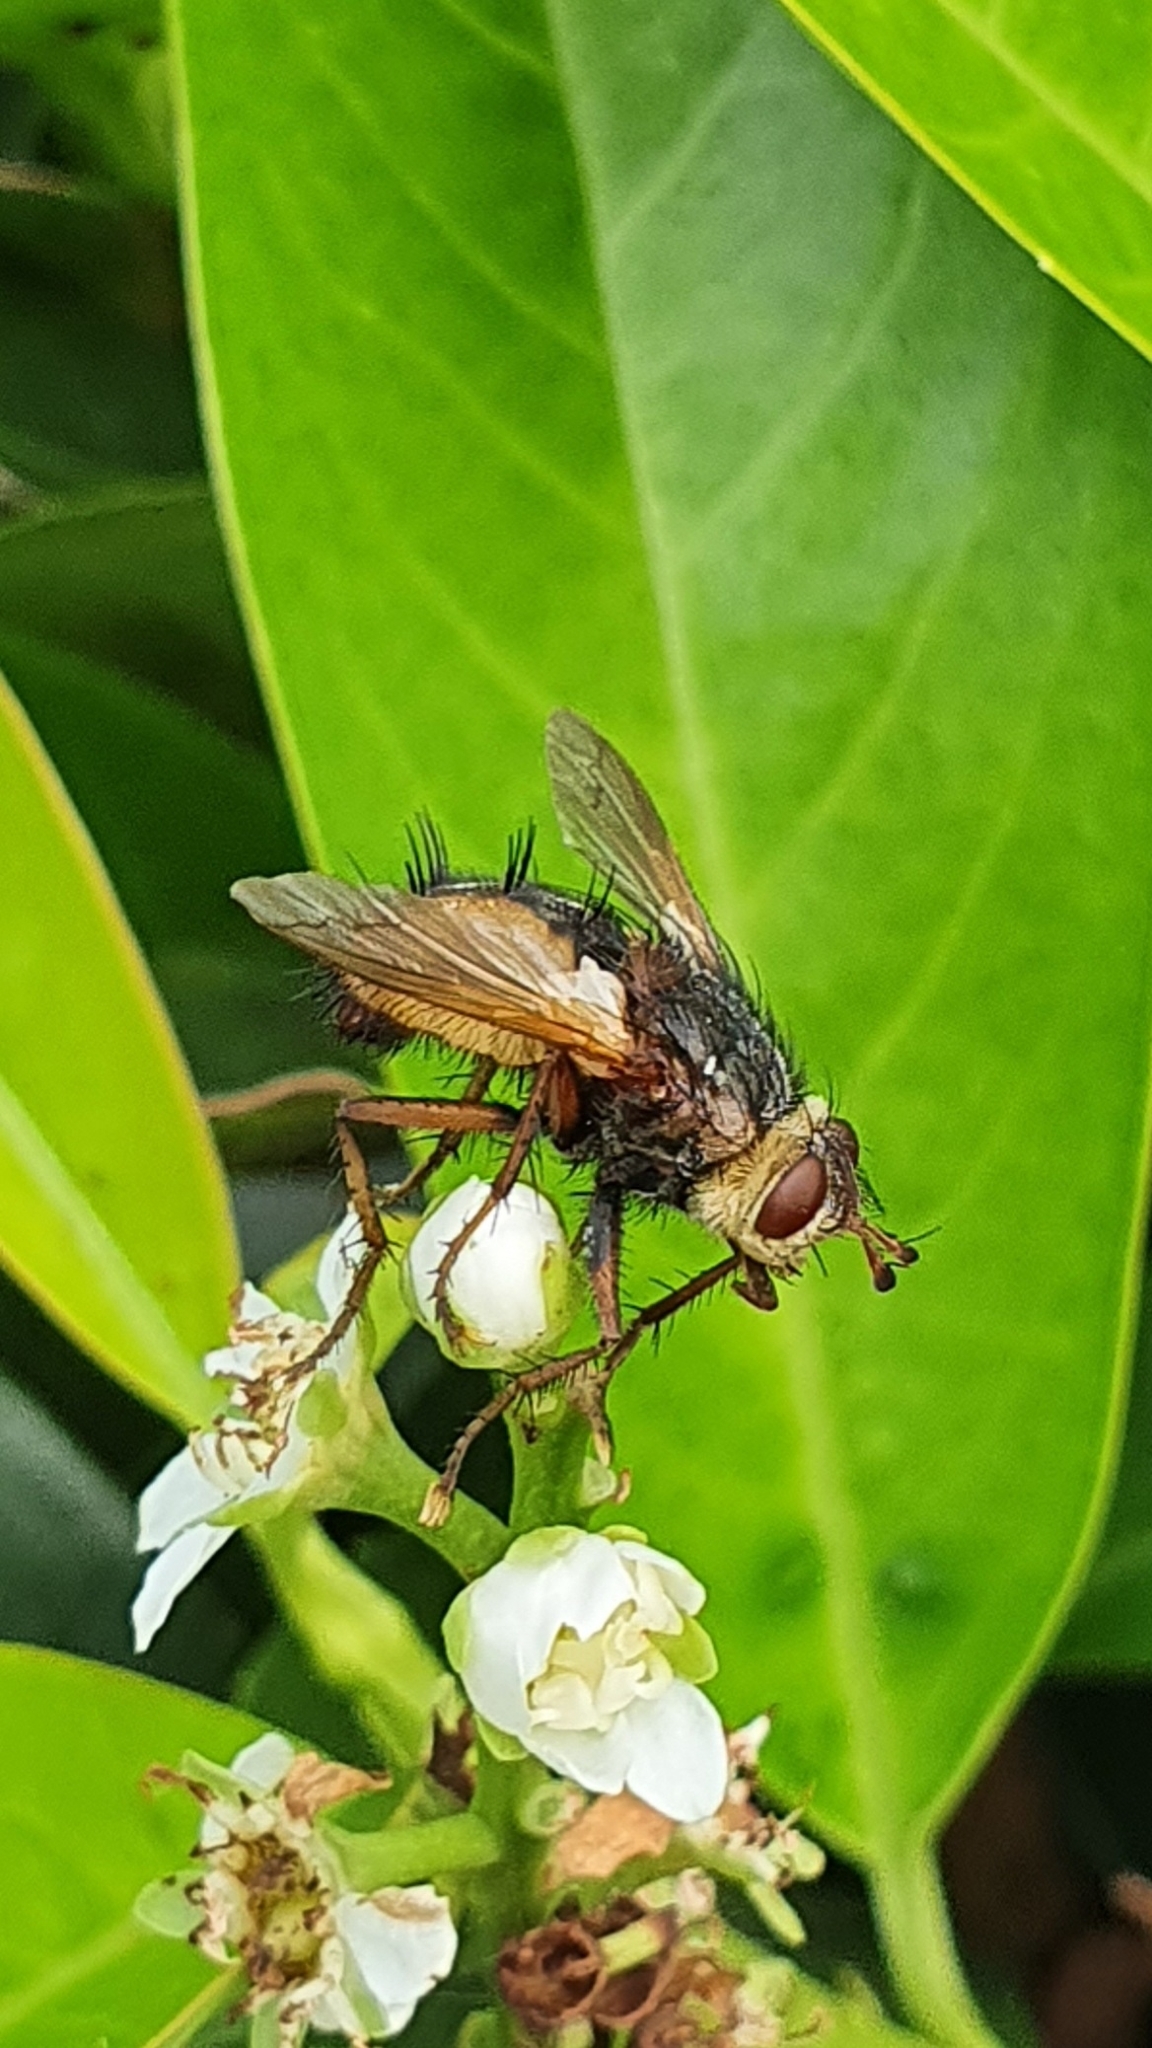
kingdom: Animalia
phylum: Arthropoda
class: Insecta
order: Diptera
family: Tachinidae
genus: Tachina
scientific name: Tachina fera
